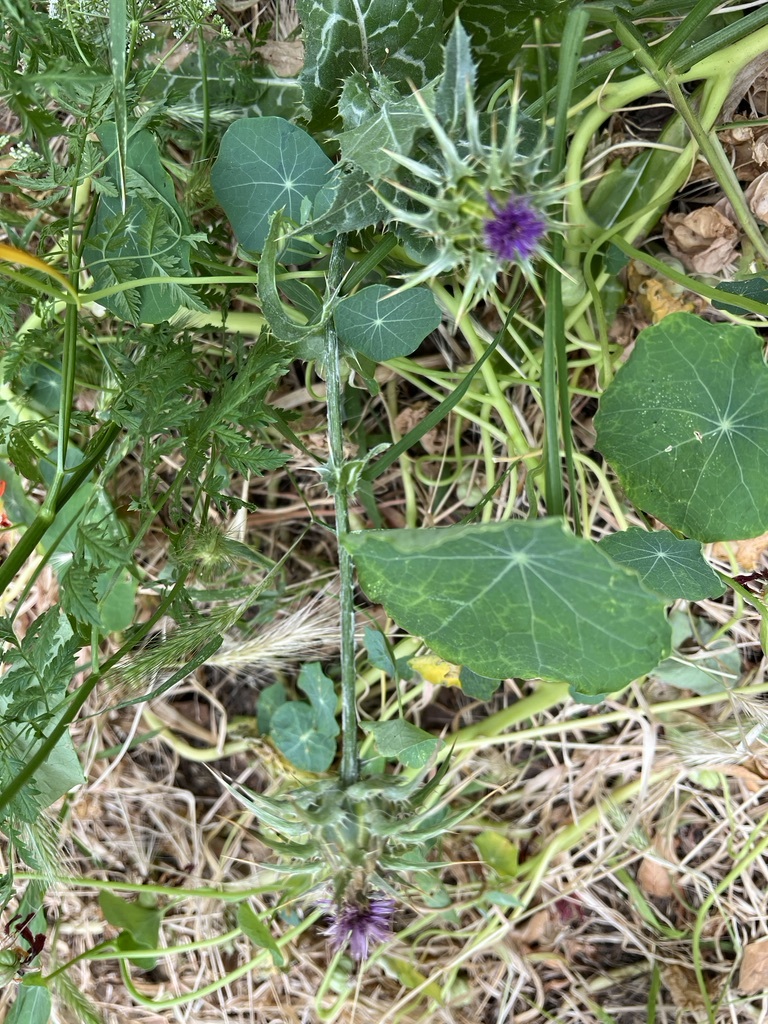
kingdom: Plantae
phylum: Tracheophyta
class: Magnoliopsida
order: Brassicales
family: Tropaeolaceae
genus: Tropaeolum
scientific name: Tropaeolum majus
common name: Nasturtium
